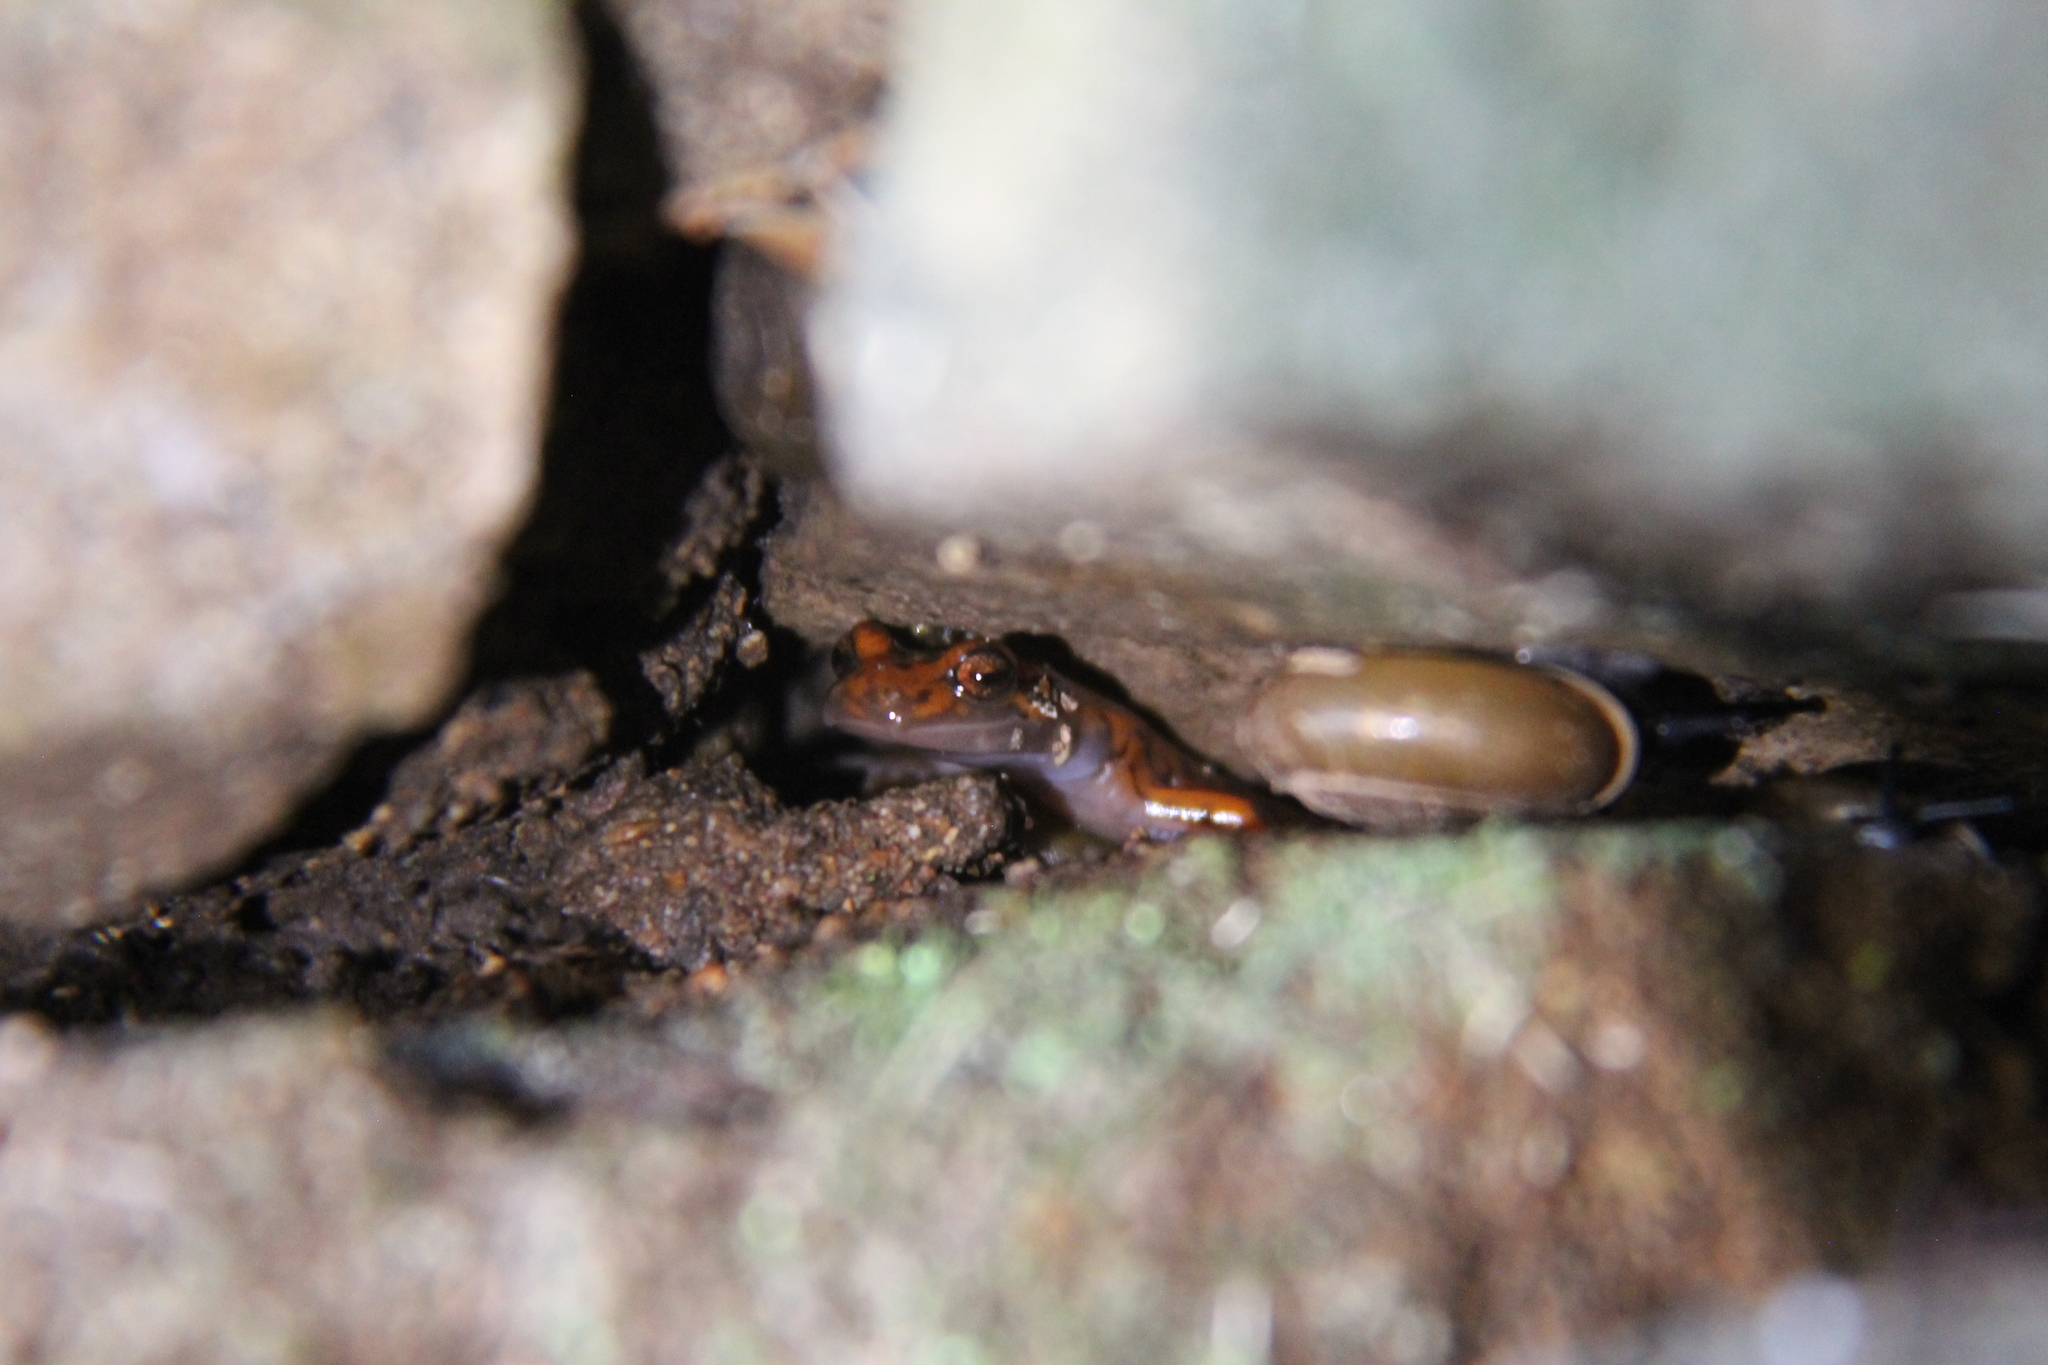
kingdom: Animalia
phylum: Chordata
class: Amphibia
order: Caudata
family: Plethodontidae
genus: Eurycea
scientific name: Eurycea lucifuga
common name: Cave salamander
